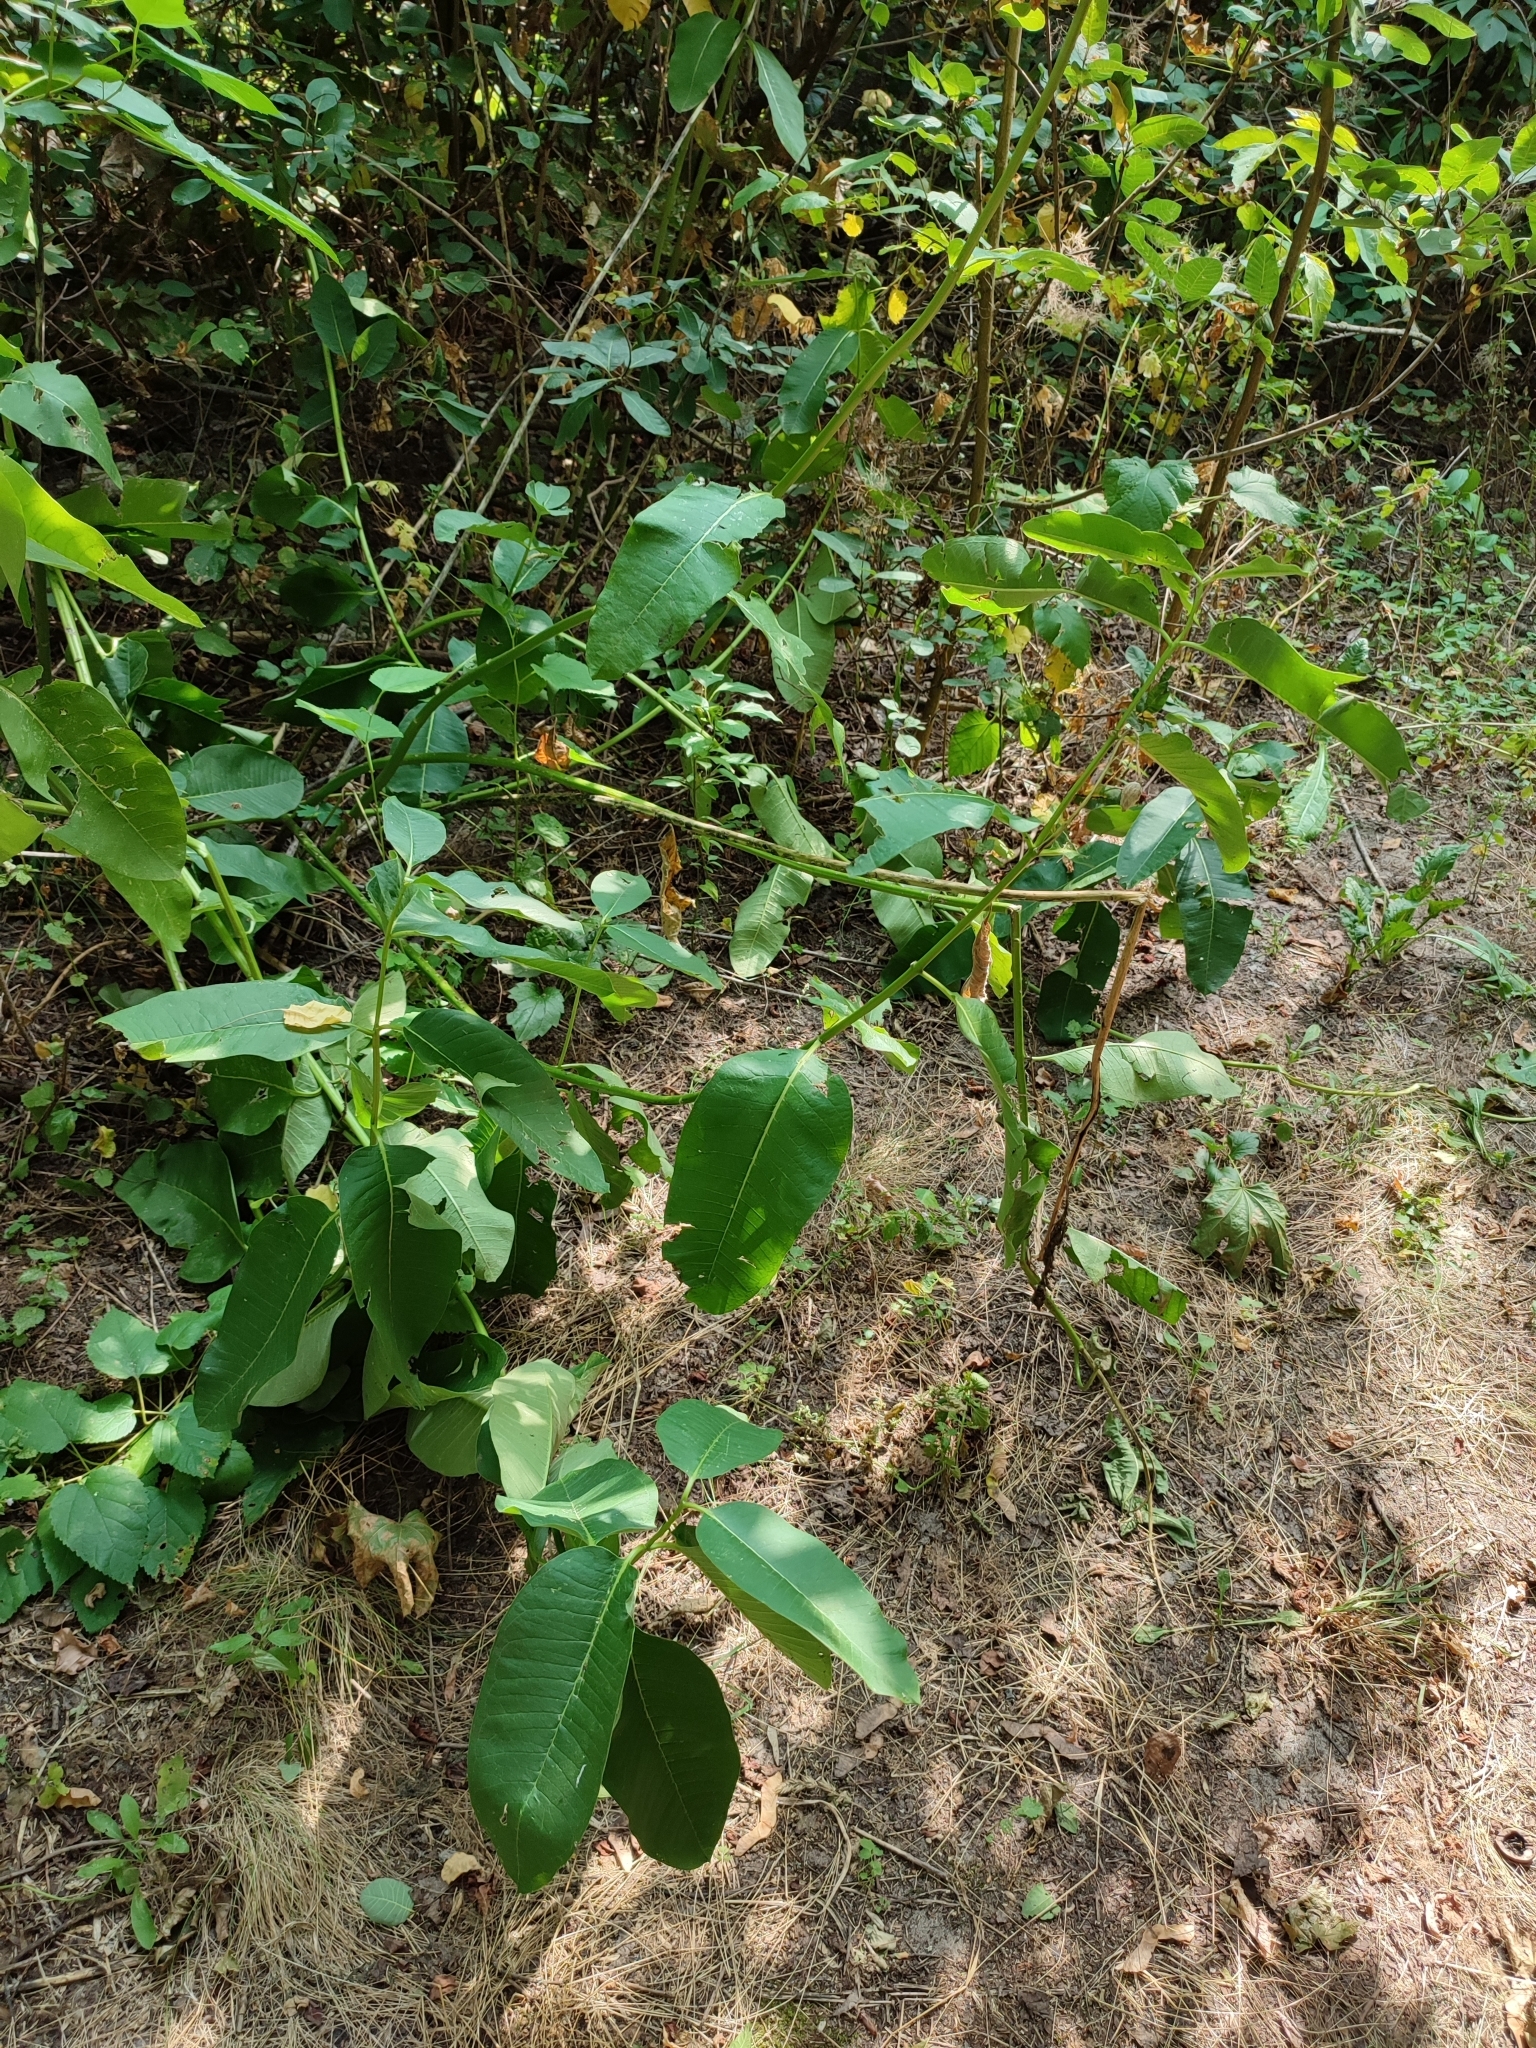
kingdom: Plantae
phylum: Tracheophyta
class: Magnoliopsida
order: Gentianales
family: Apocynaceae
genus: Asclepias
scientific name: Asclepias syriaca
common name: Common milkweed
